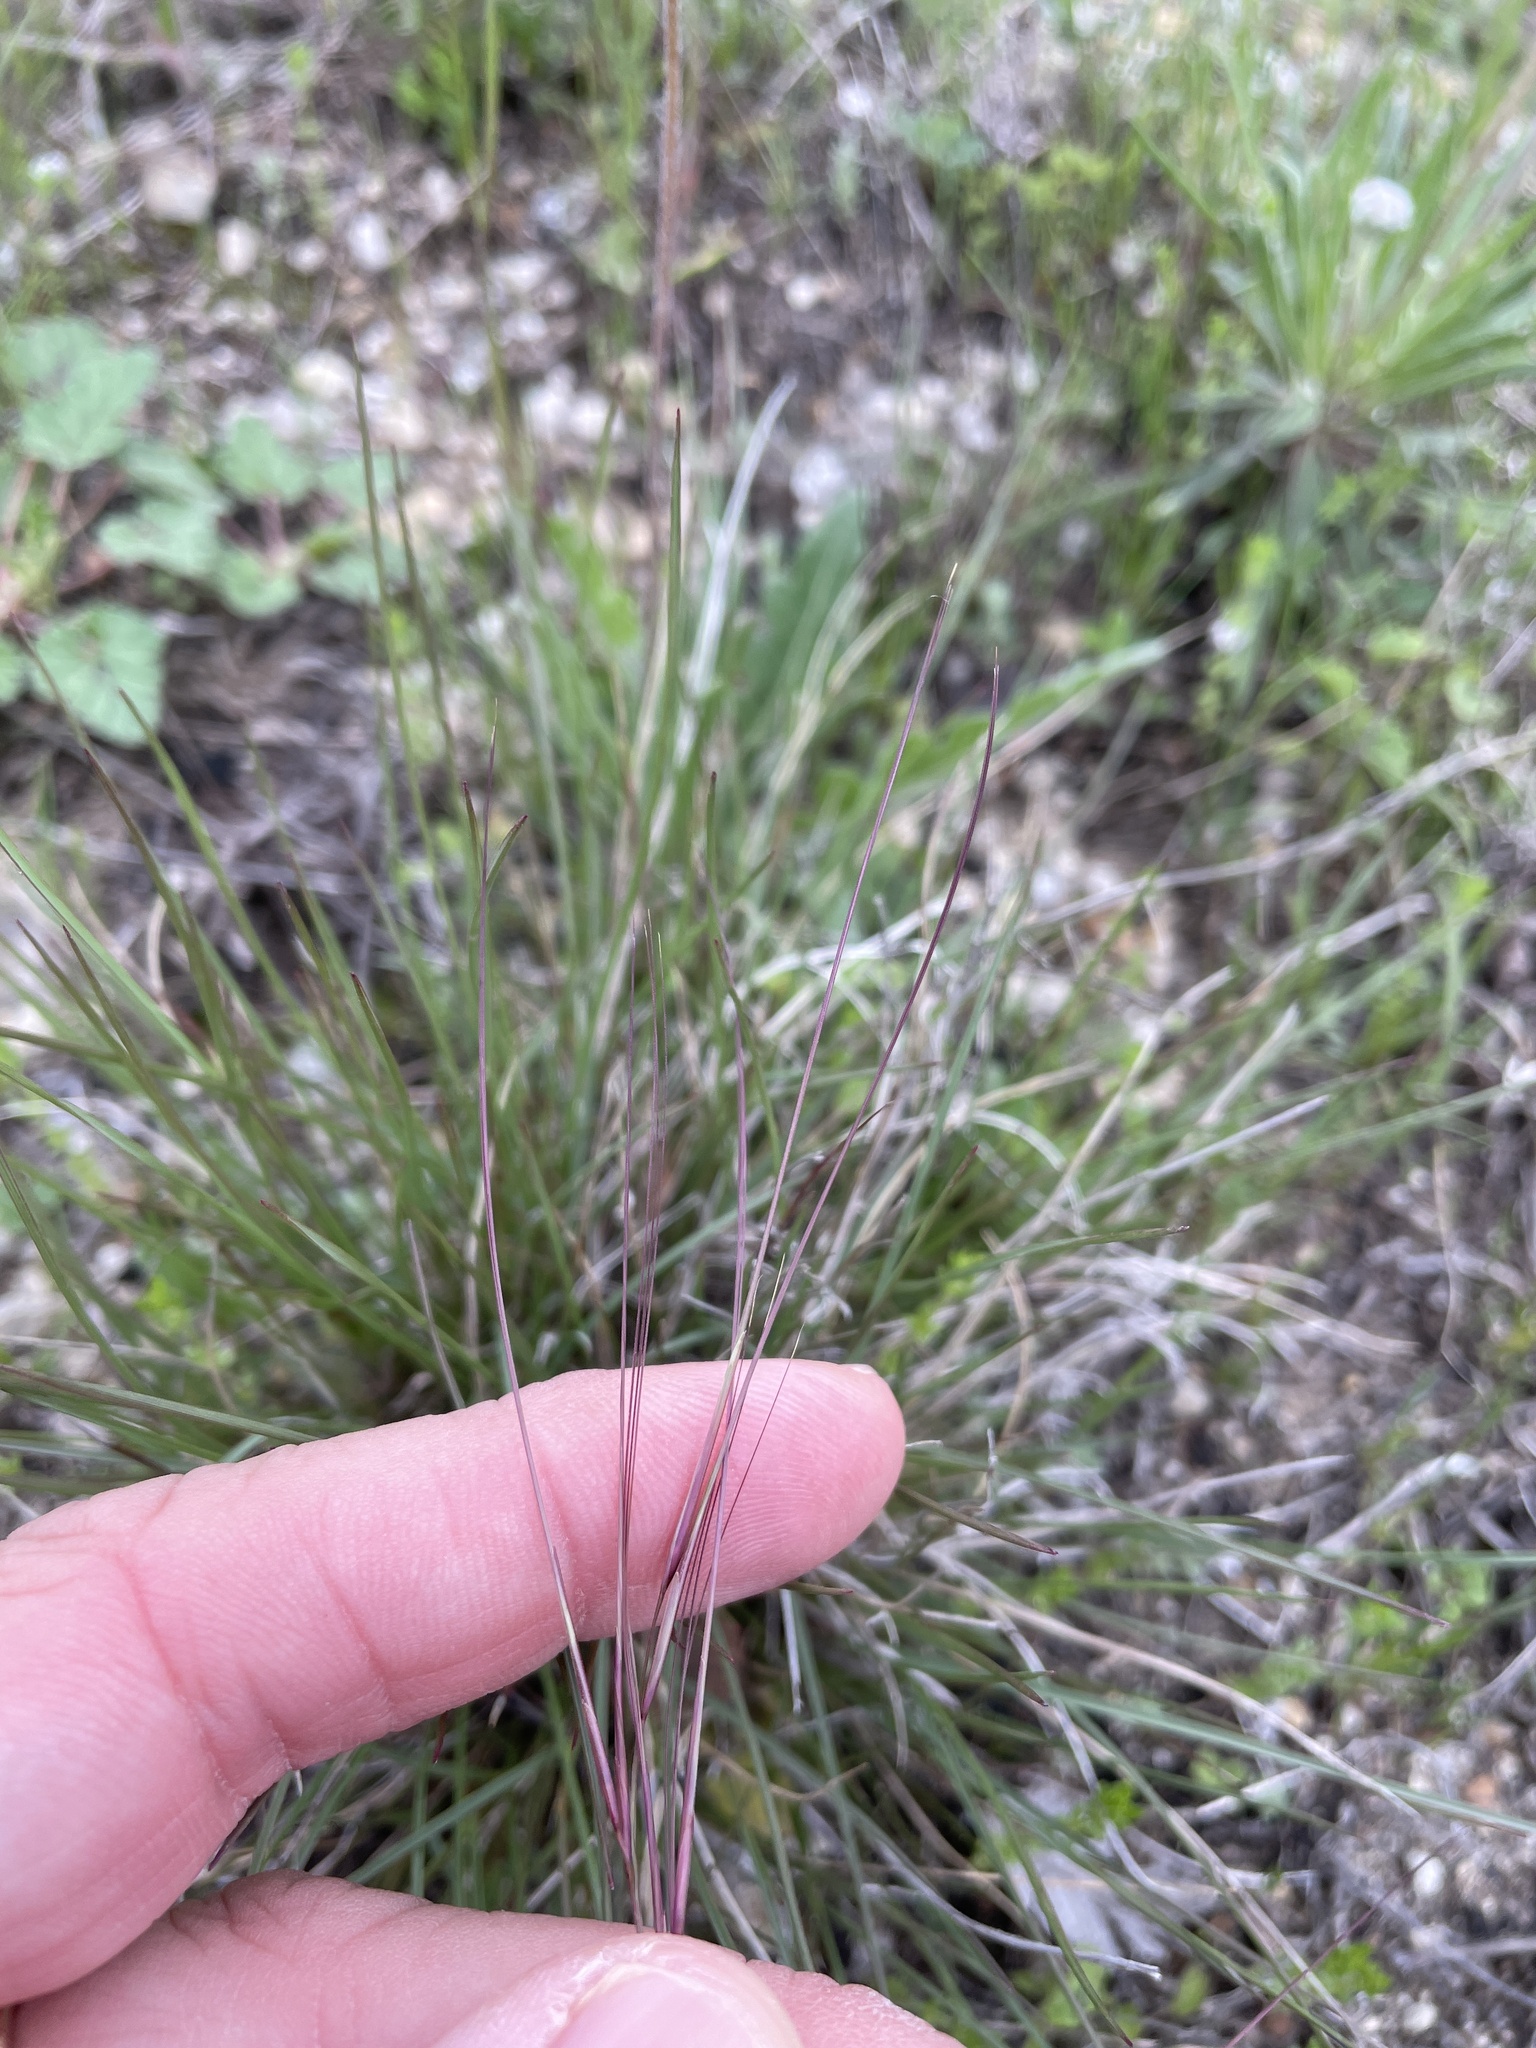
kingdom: Plantae
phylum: Tracheophyta
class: Liliopsida
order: Poales
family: Poaceae
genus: Aristida
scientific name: Aristida purpurea
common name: Purple threeawn
